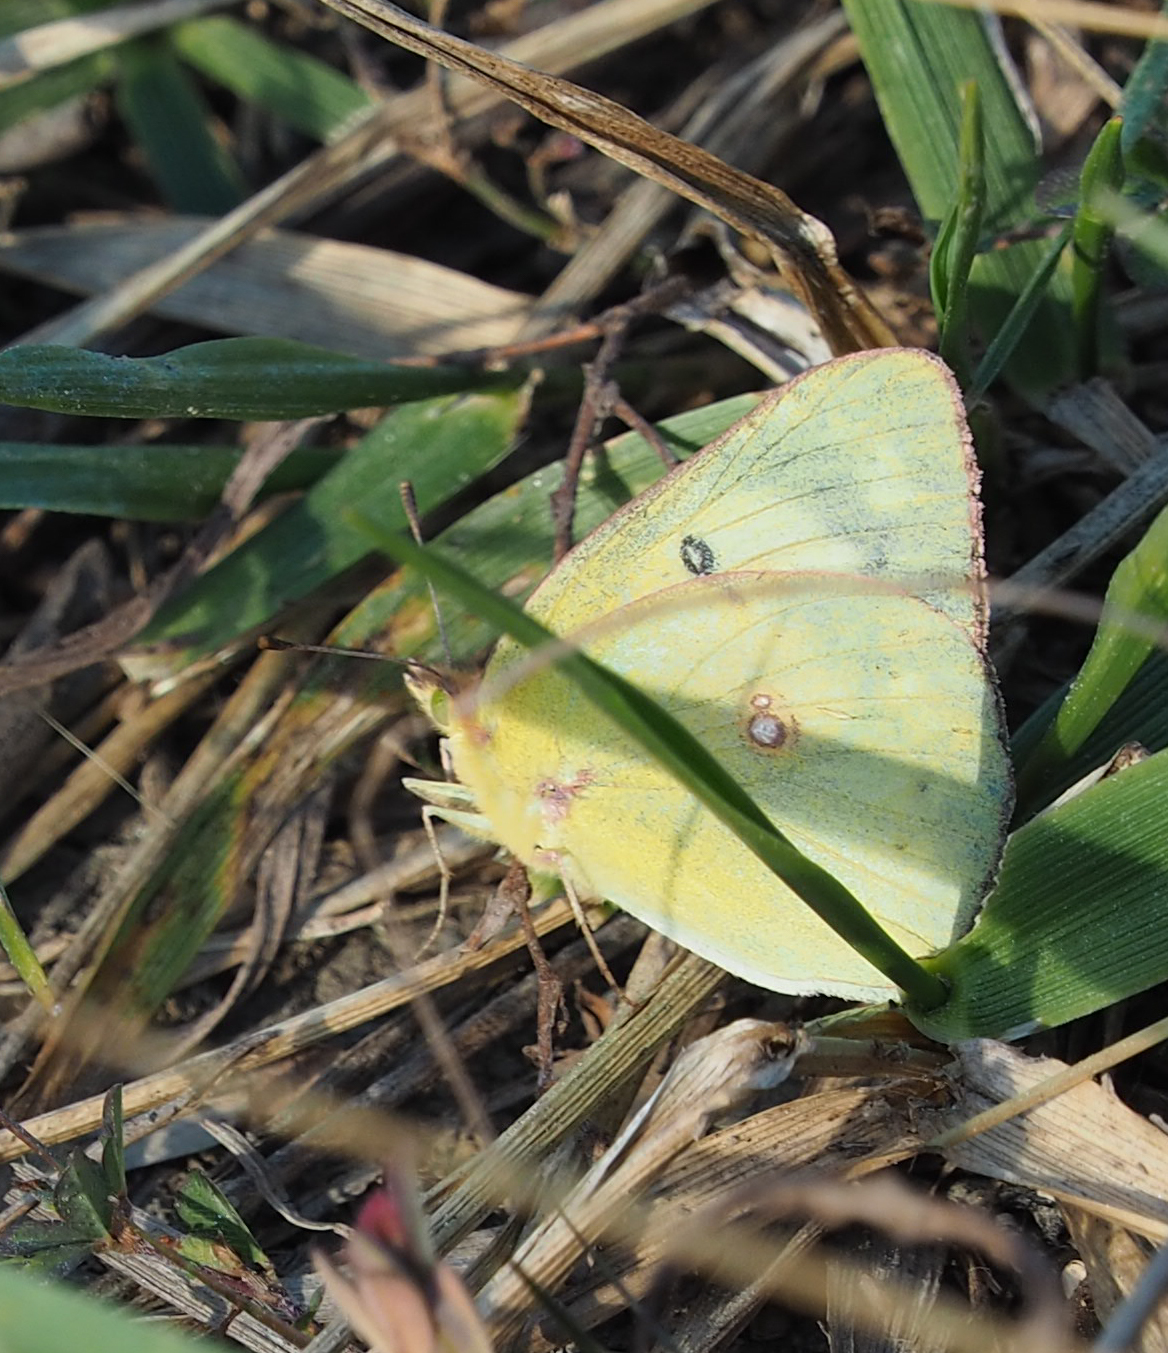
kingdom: Animalia
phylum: Arthropoda
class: Insecta
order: Lepidoptera
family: Pieridae
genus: Colias
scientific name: Colias philodice
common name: Clouded sulphur
